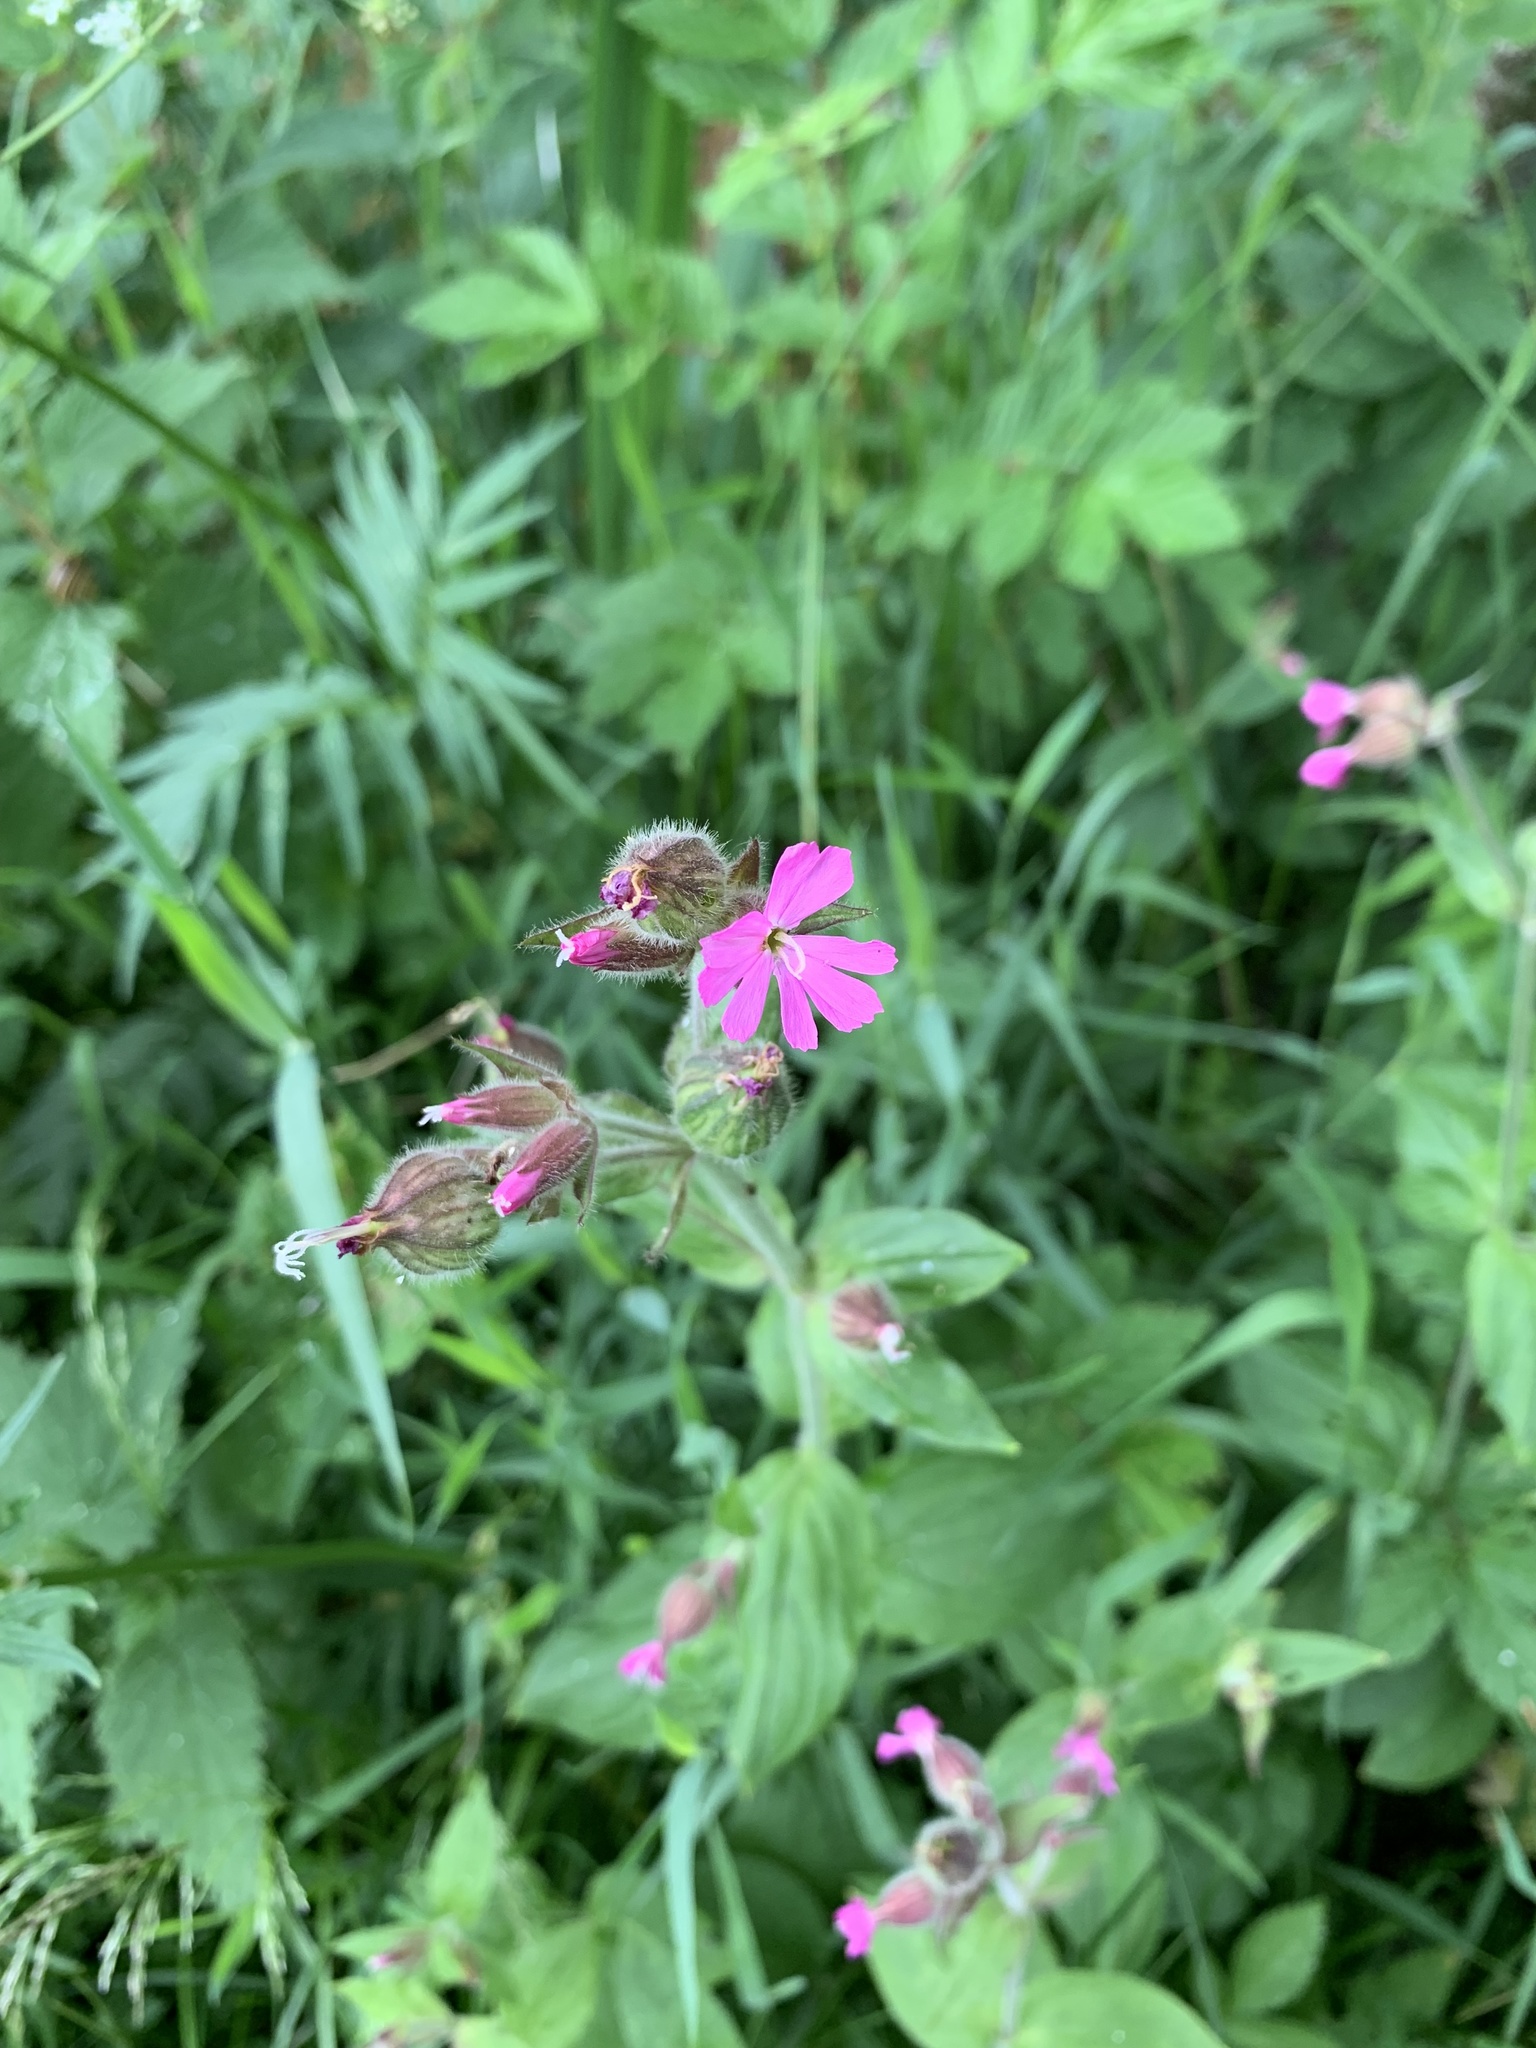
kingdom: Plantae
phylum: Tracheophyta
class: Magnoliopsida
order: Caryophyllales
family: Caryophyllaceae
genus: Silene
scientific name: Silene dioica
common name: Red campion
